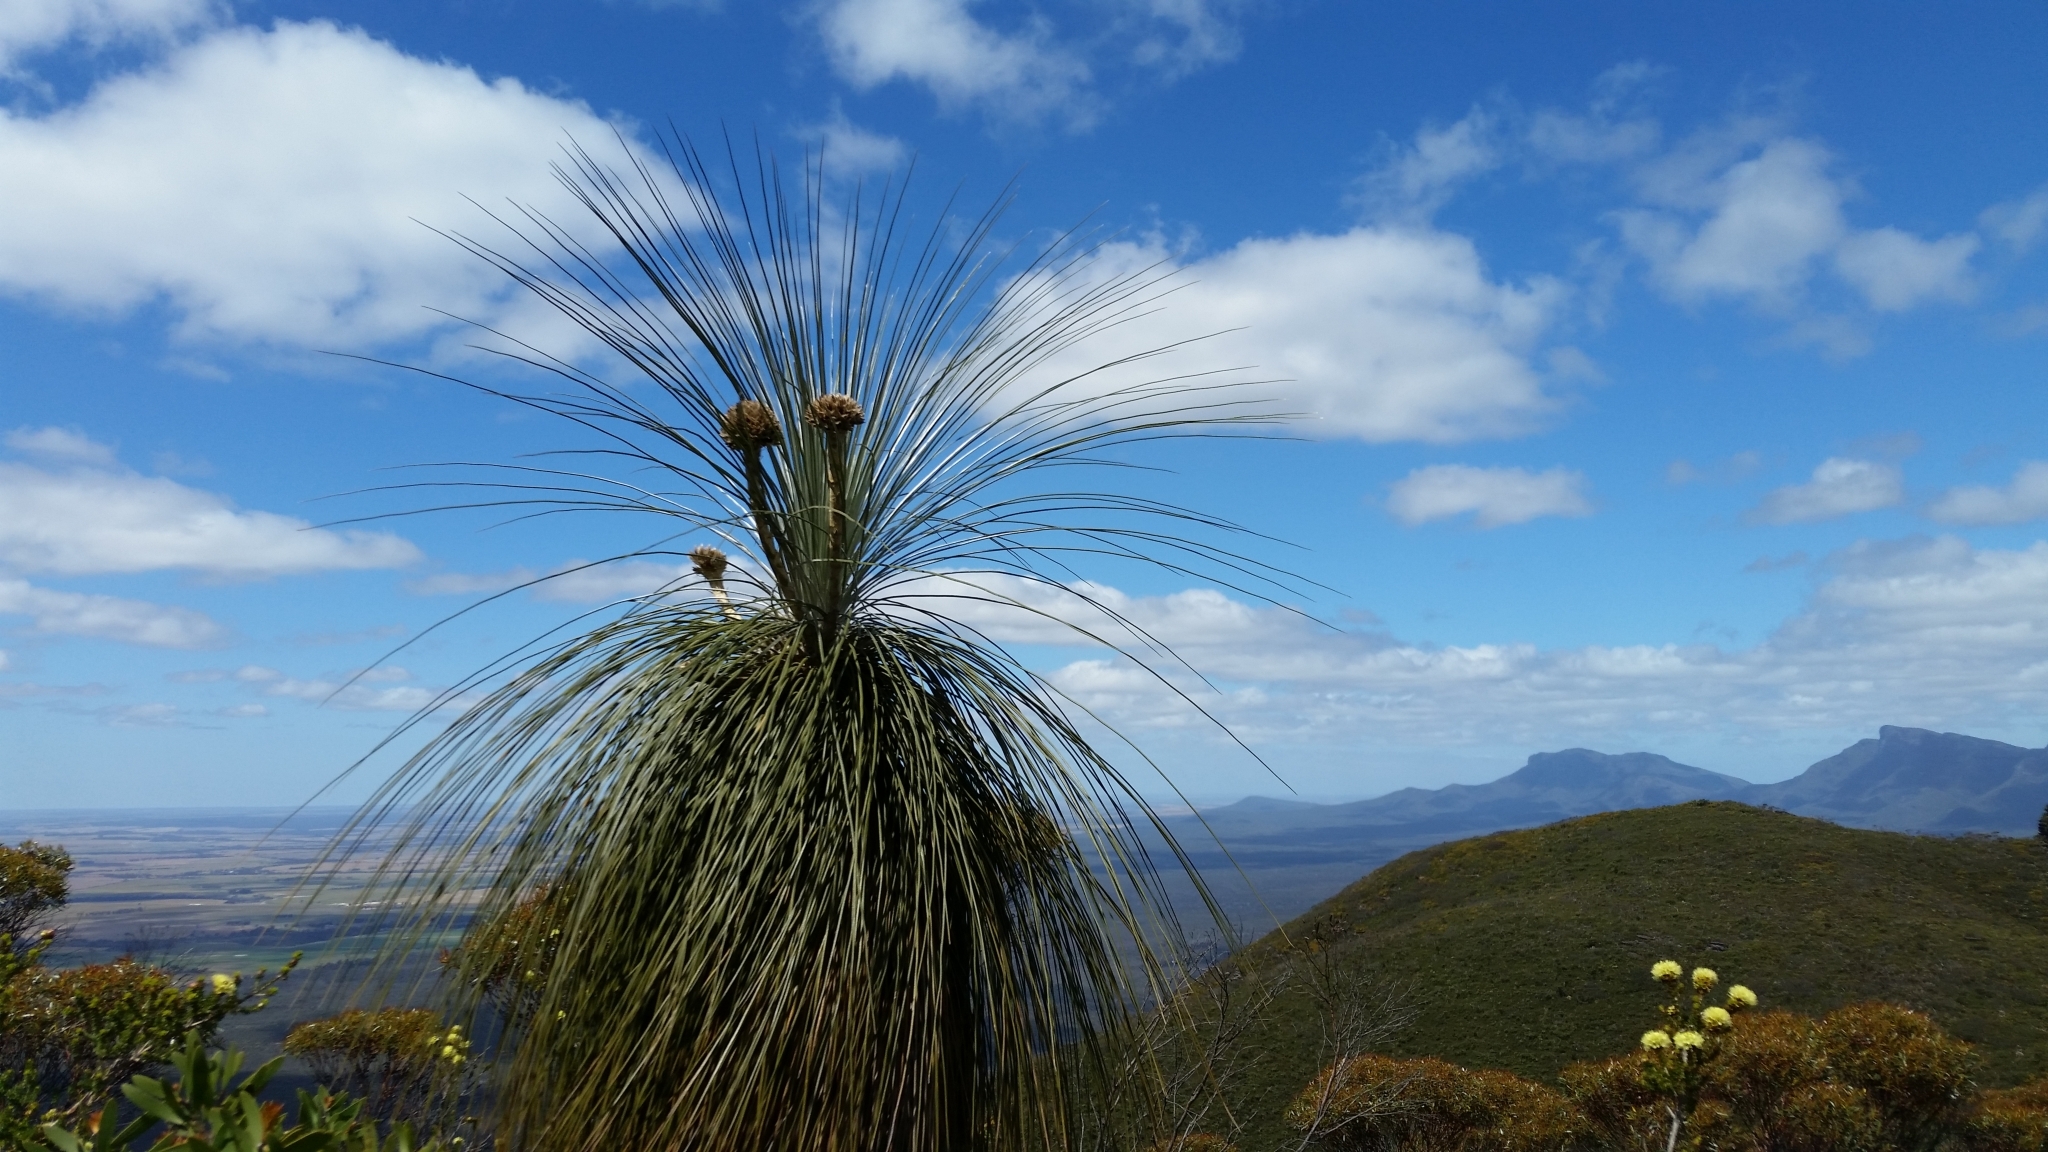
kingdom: Plantae
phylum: Tracheophyta
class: Liliopsida
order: Arecales
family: Dasypogonaceae
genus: Kingia
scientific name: Kingia australis
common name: Black gin
